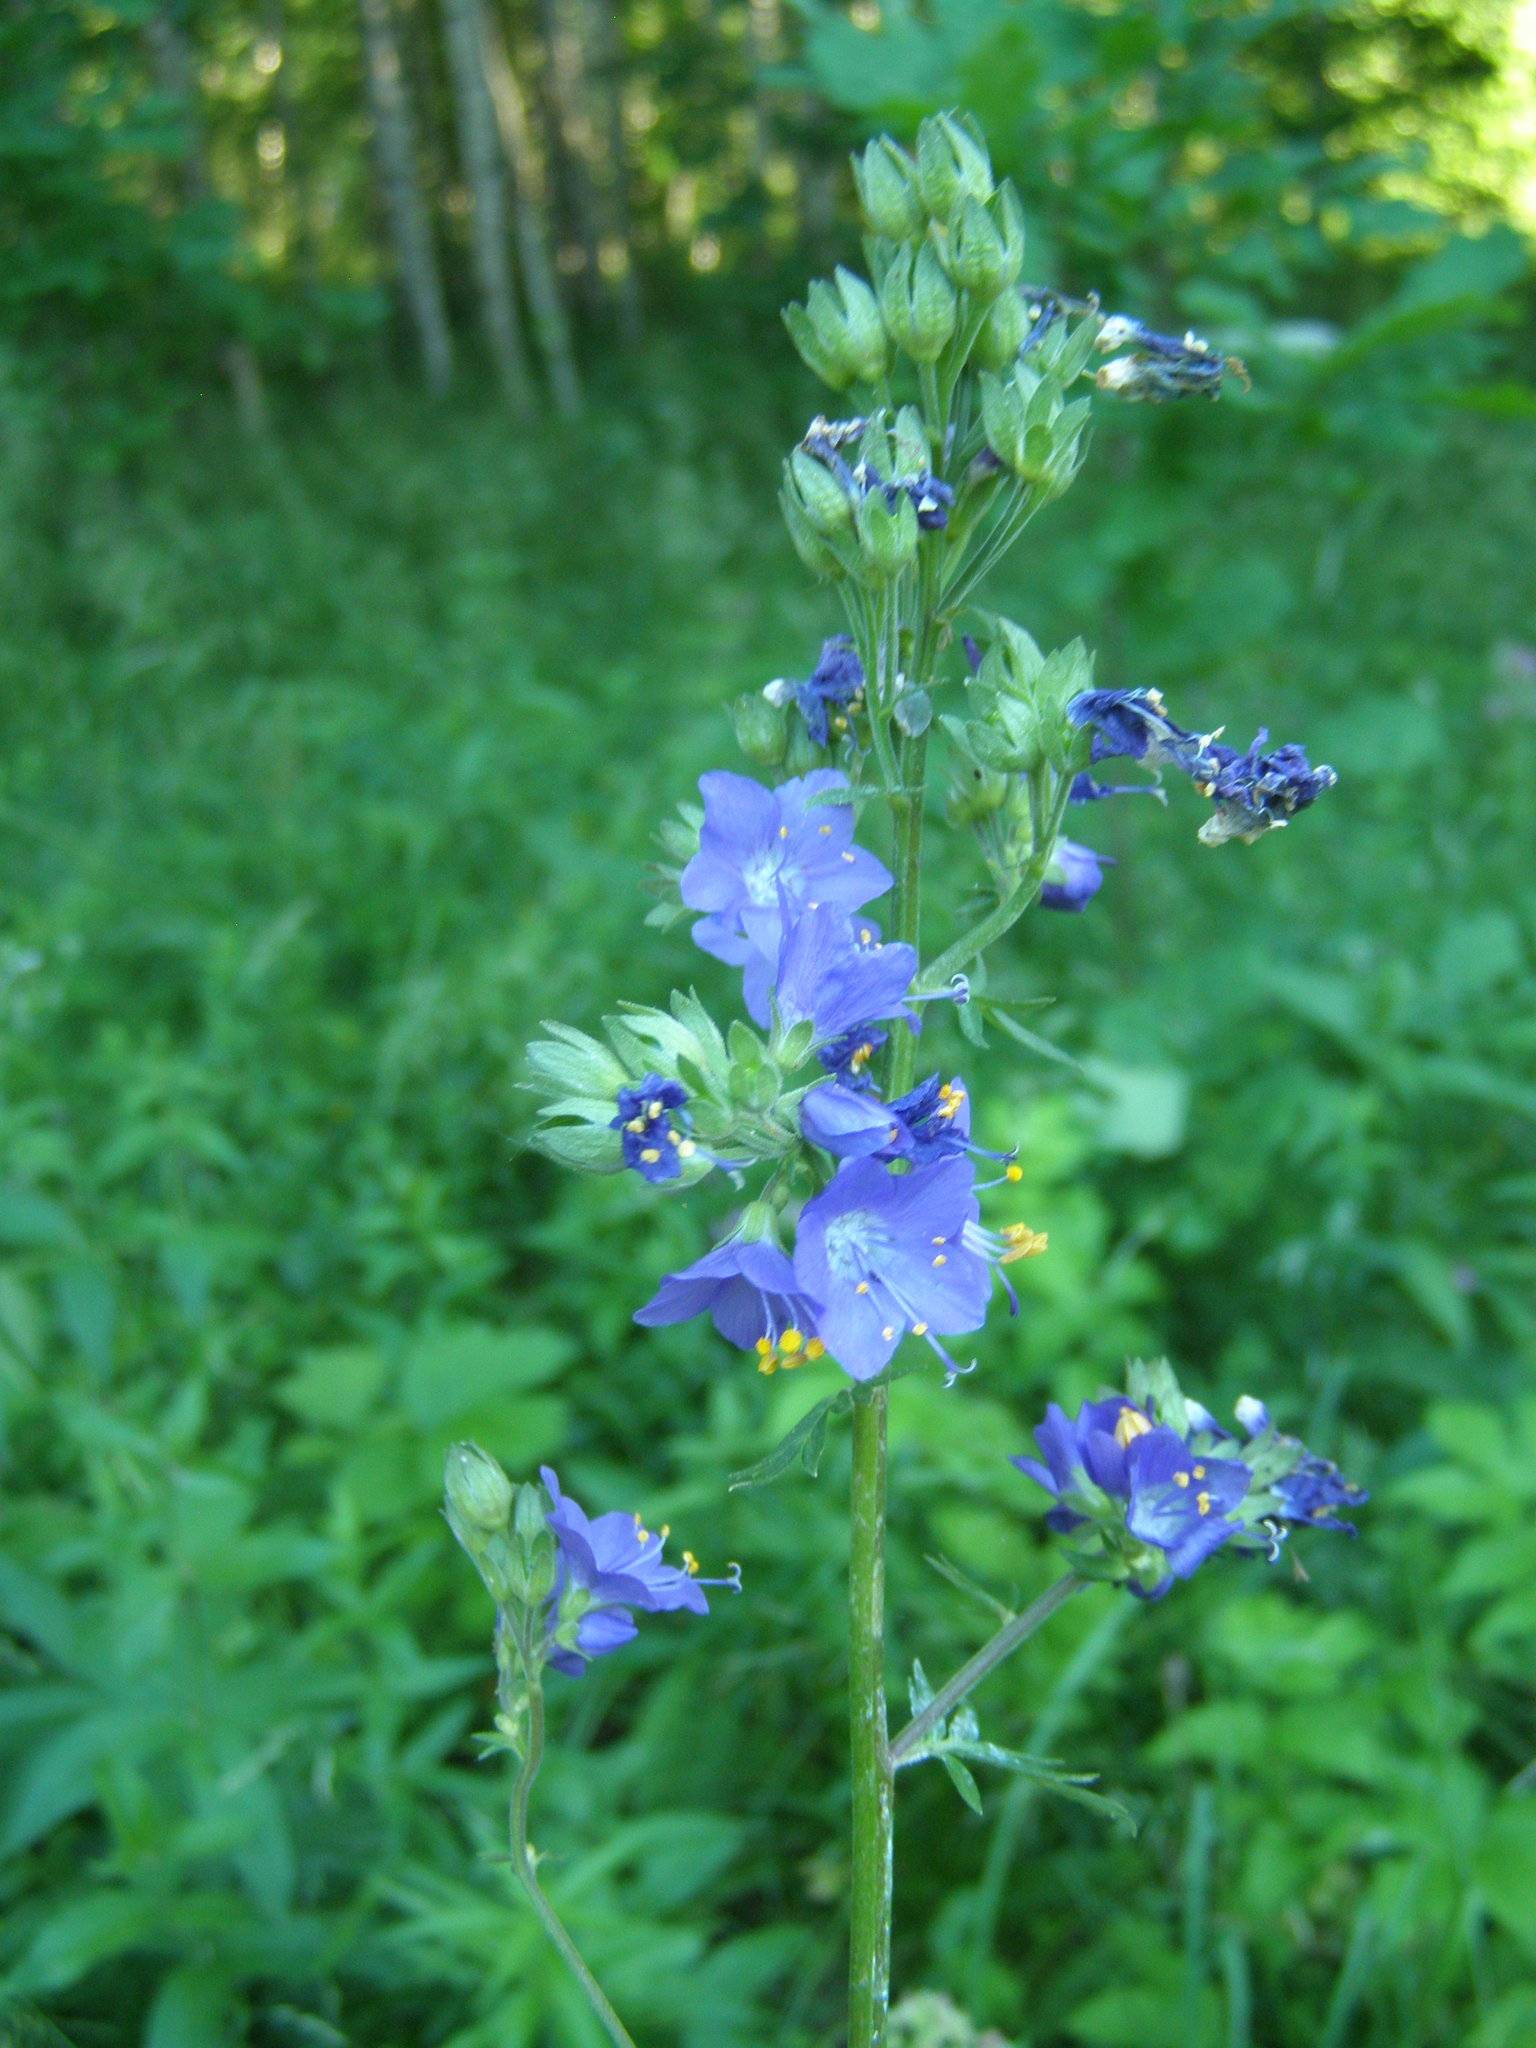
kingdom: Plantae
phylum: Tracheophyta
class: Magnoliopsida
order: Ericales
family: Polemoniaceae
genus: Polemonium
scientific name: Polemonium caeruleum
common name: Jacob's-ladder
